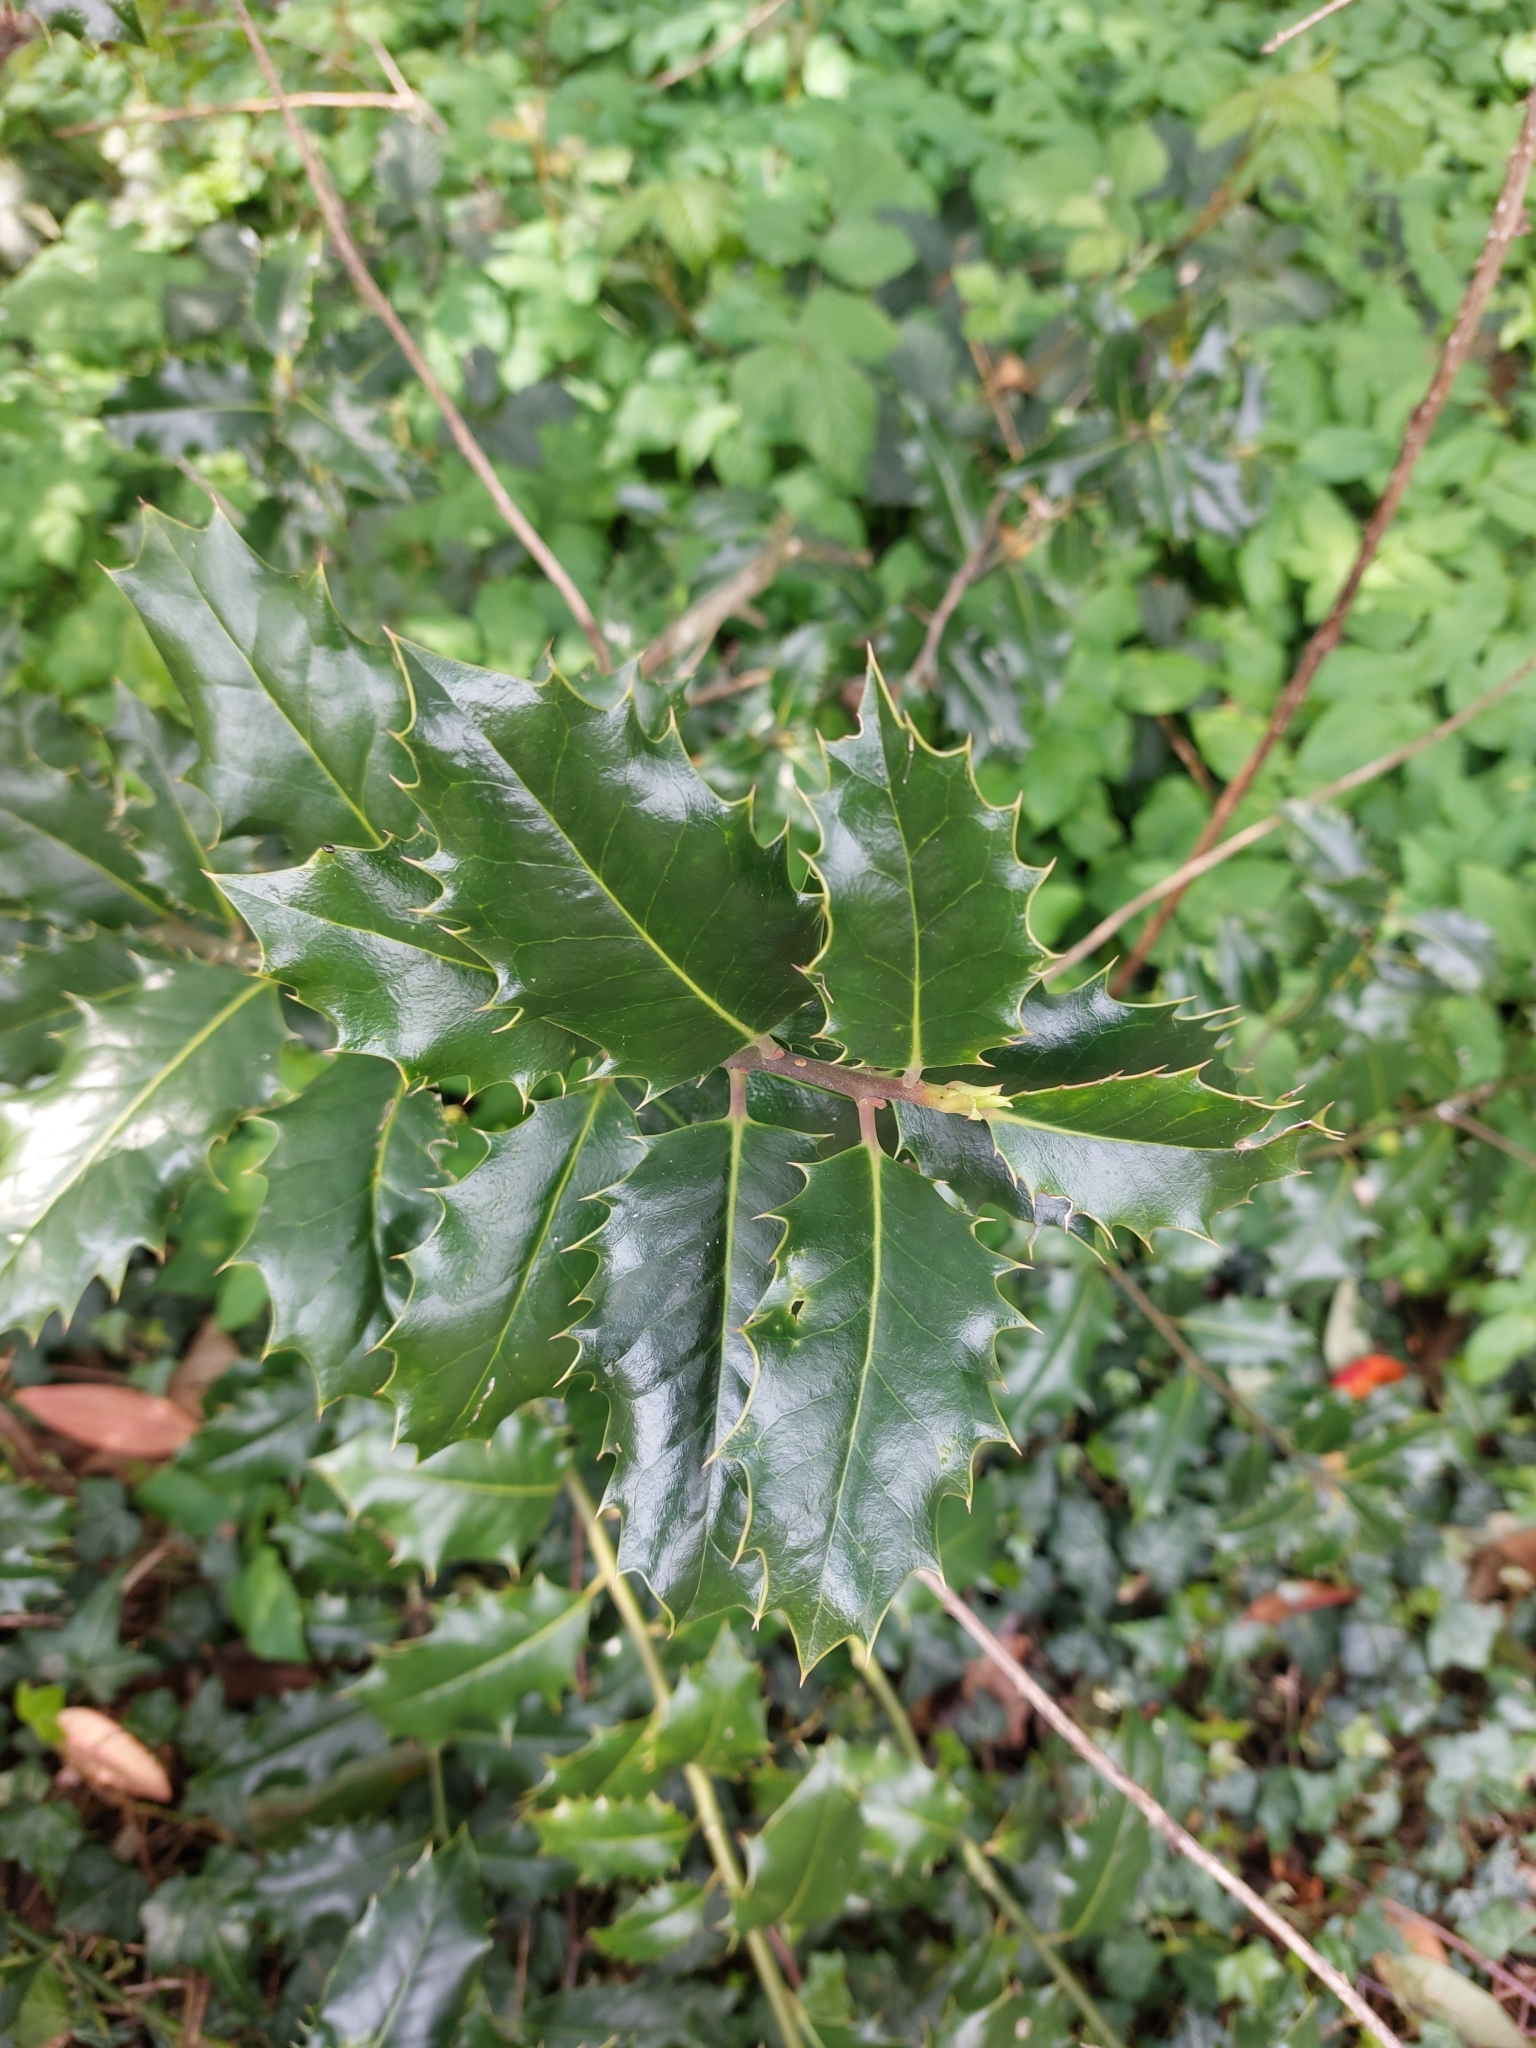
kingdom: Plantae
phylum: Tracheophyta
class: Magnoliopsida
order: Aquifoliales
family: Aquifoliaceae
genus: Ilex
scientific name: Ilex aquifolium
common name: English holly
